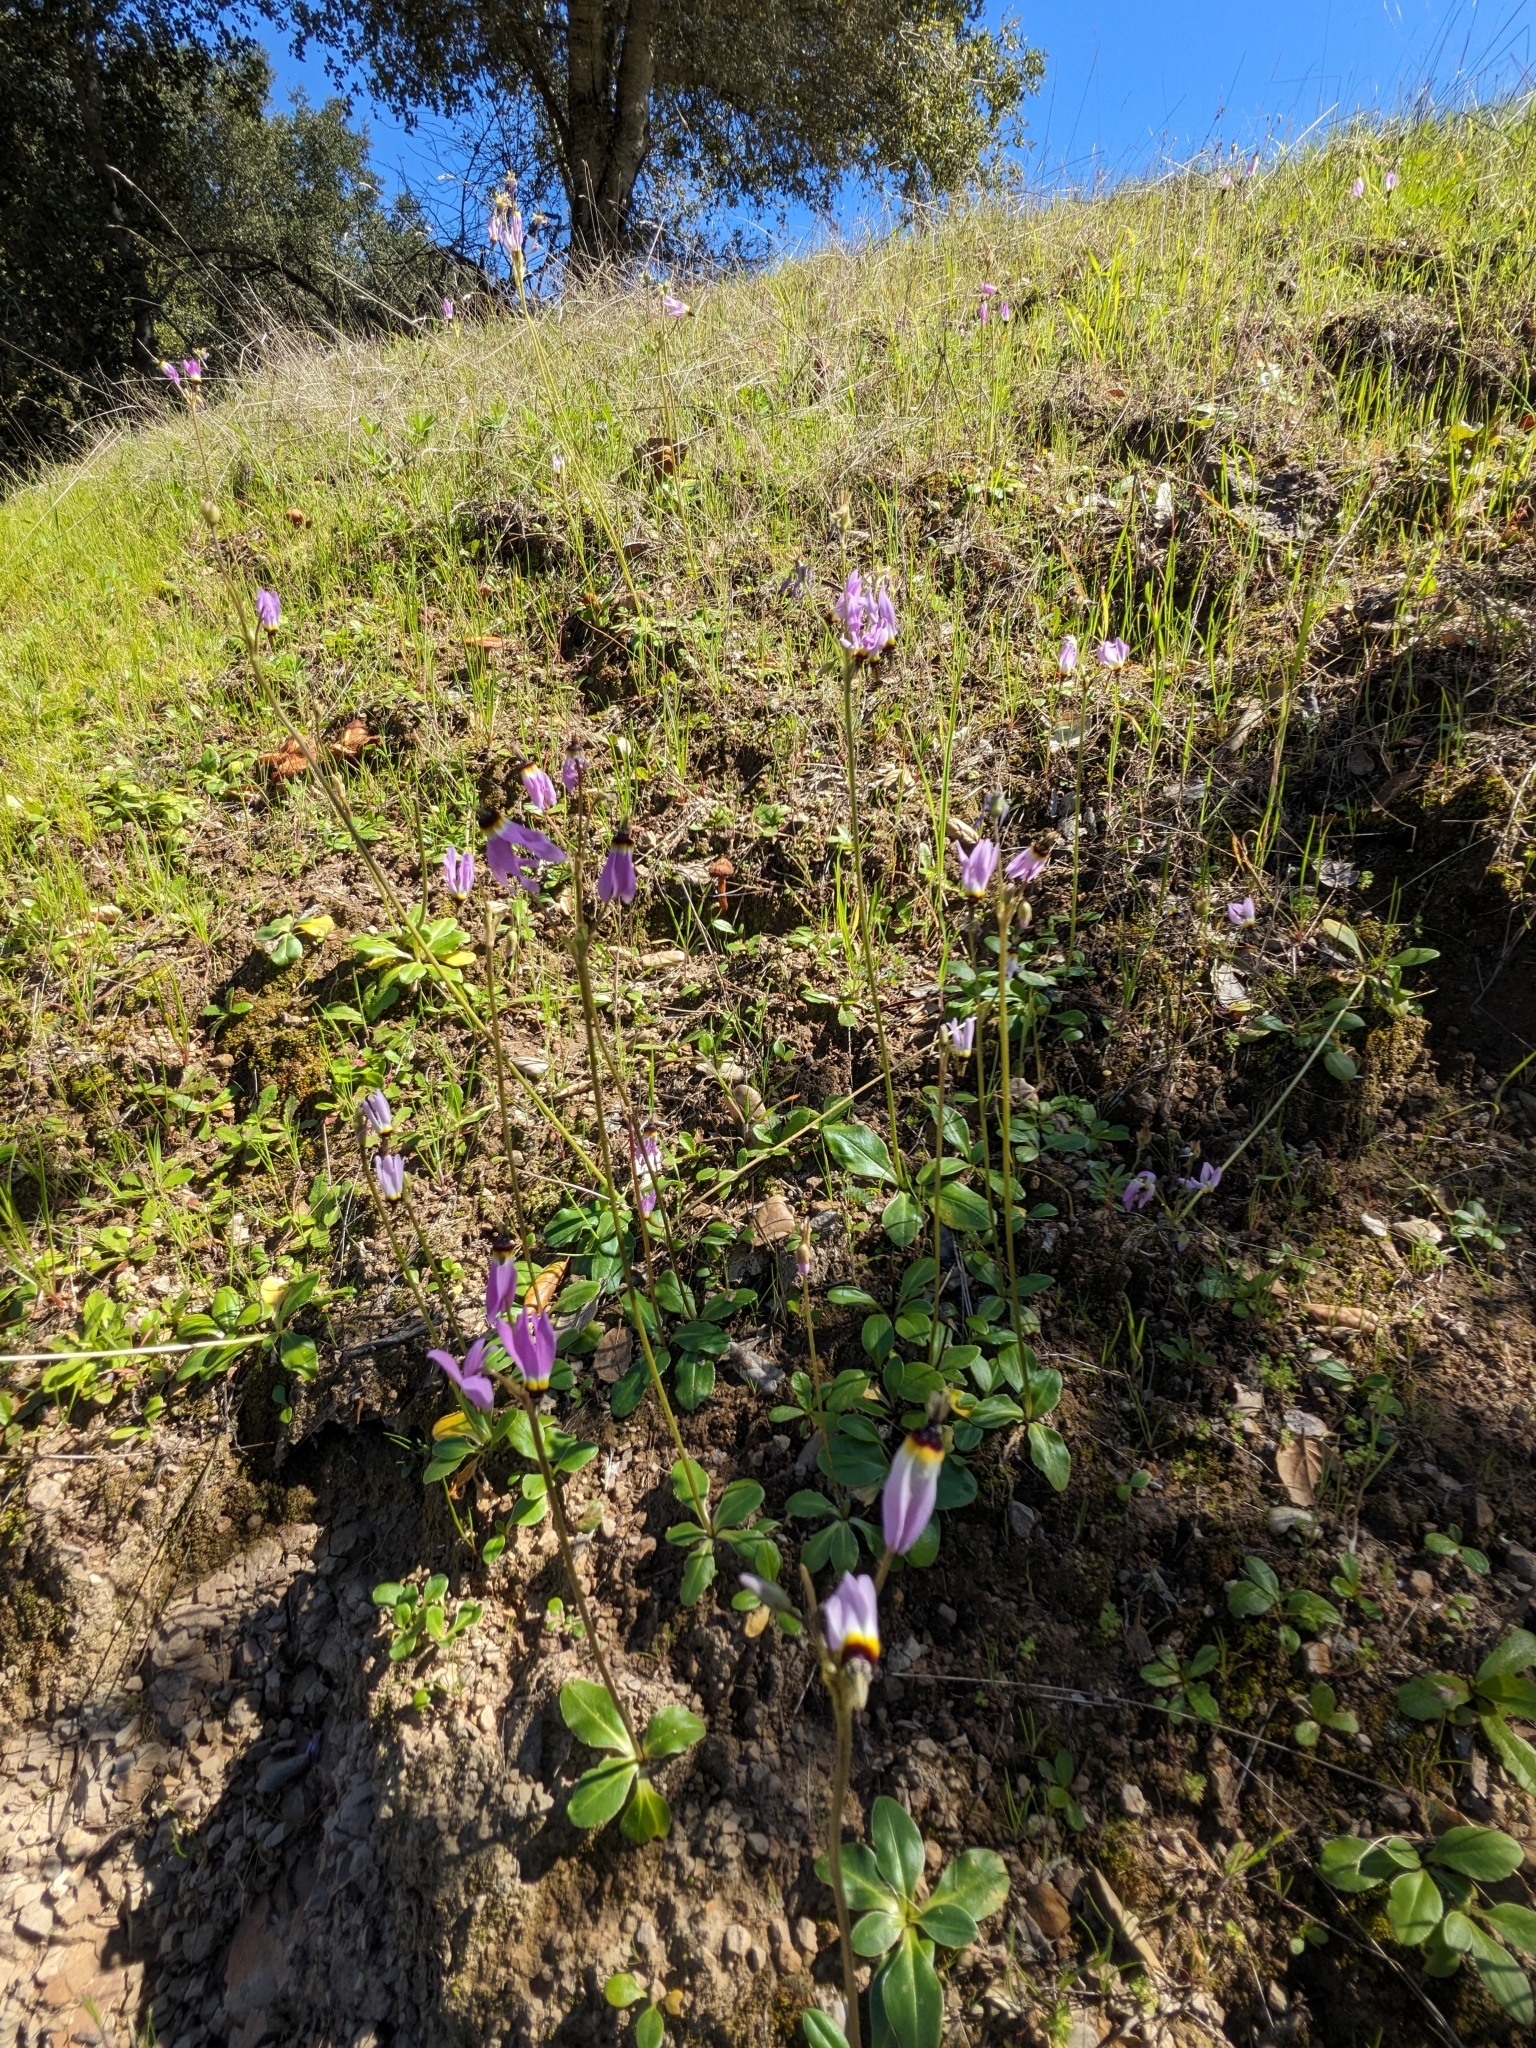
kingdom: Plantae
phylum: Tracheophyta
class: Magnoliopsida
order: Ericales
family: Primulaceae
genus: Dodecatheon
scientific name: Dodecatheon clevelandii
